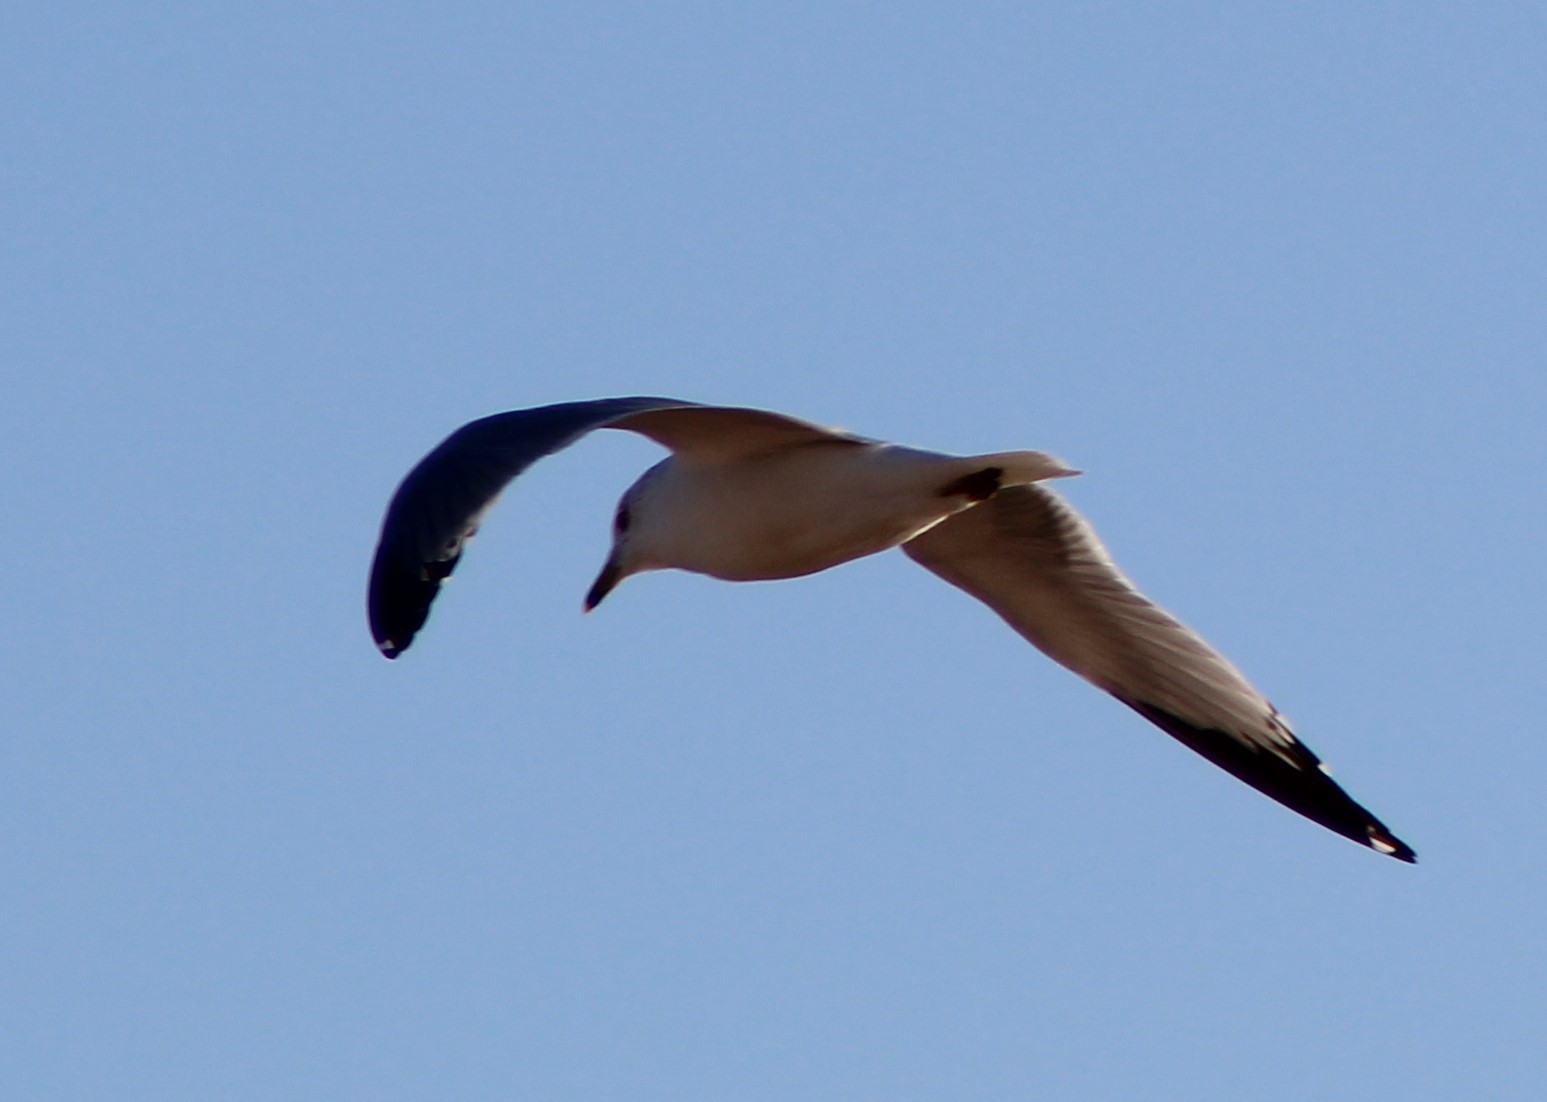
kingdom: Animalia
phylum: Chordata
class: Aves
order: Charadriiformes
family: Laridae
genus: Larus
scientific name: Larus delawarensis
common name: Ring-billed gull
